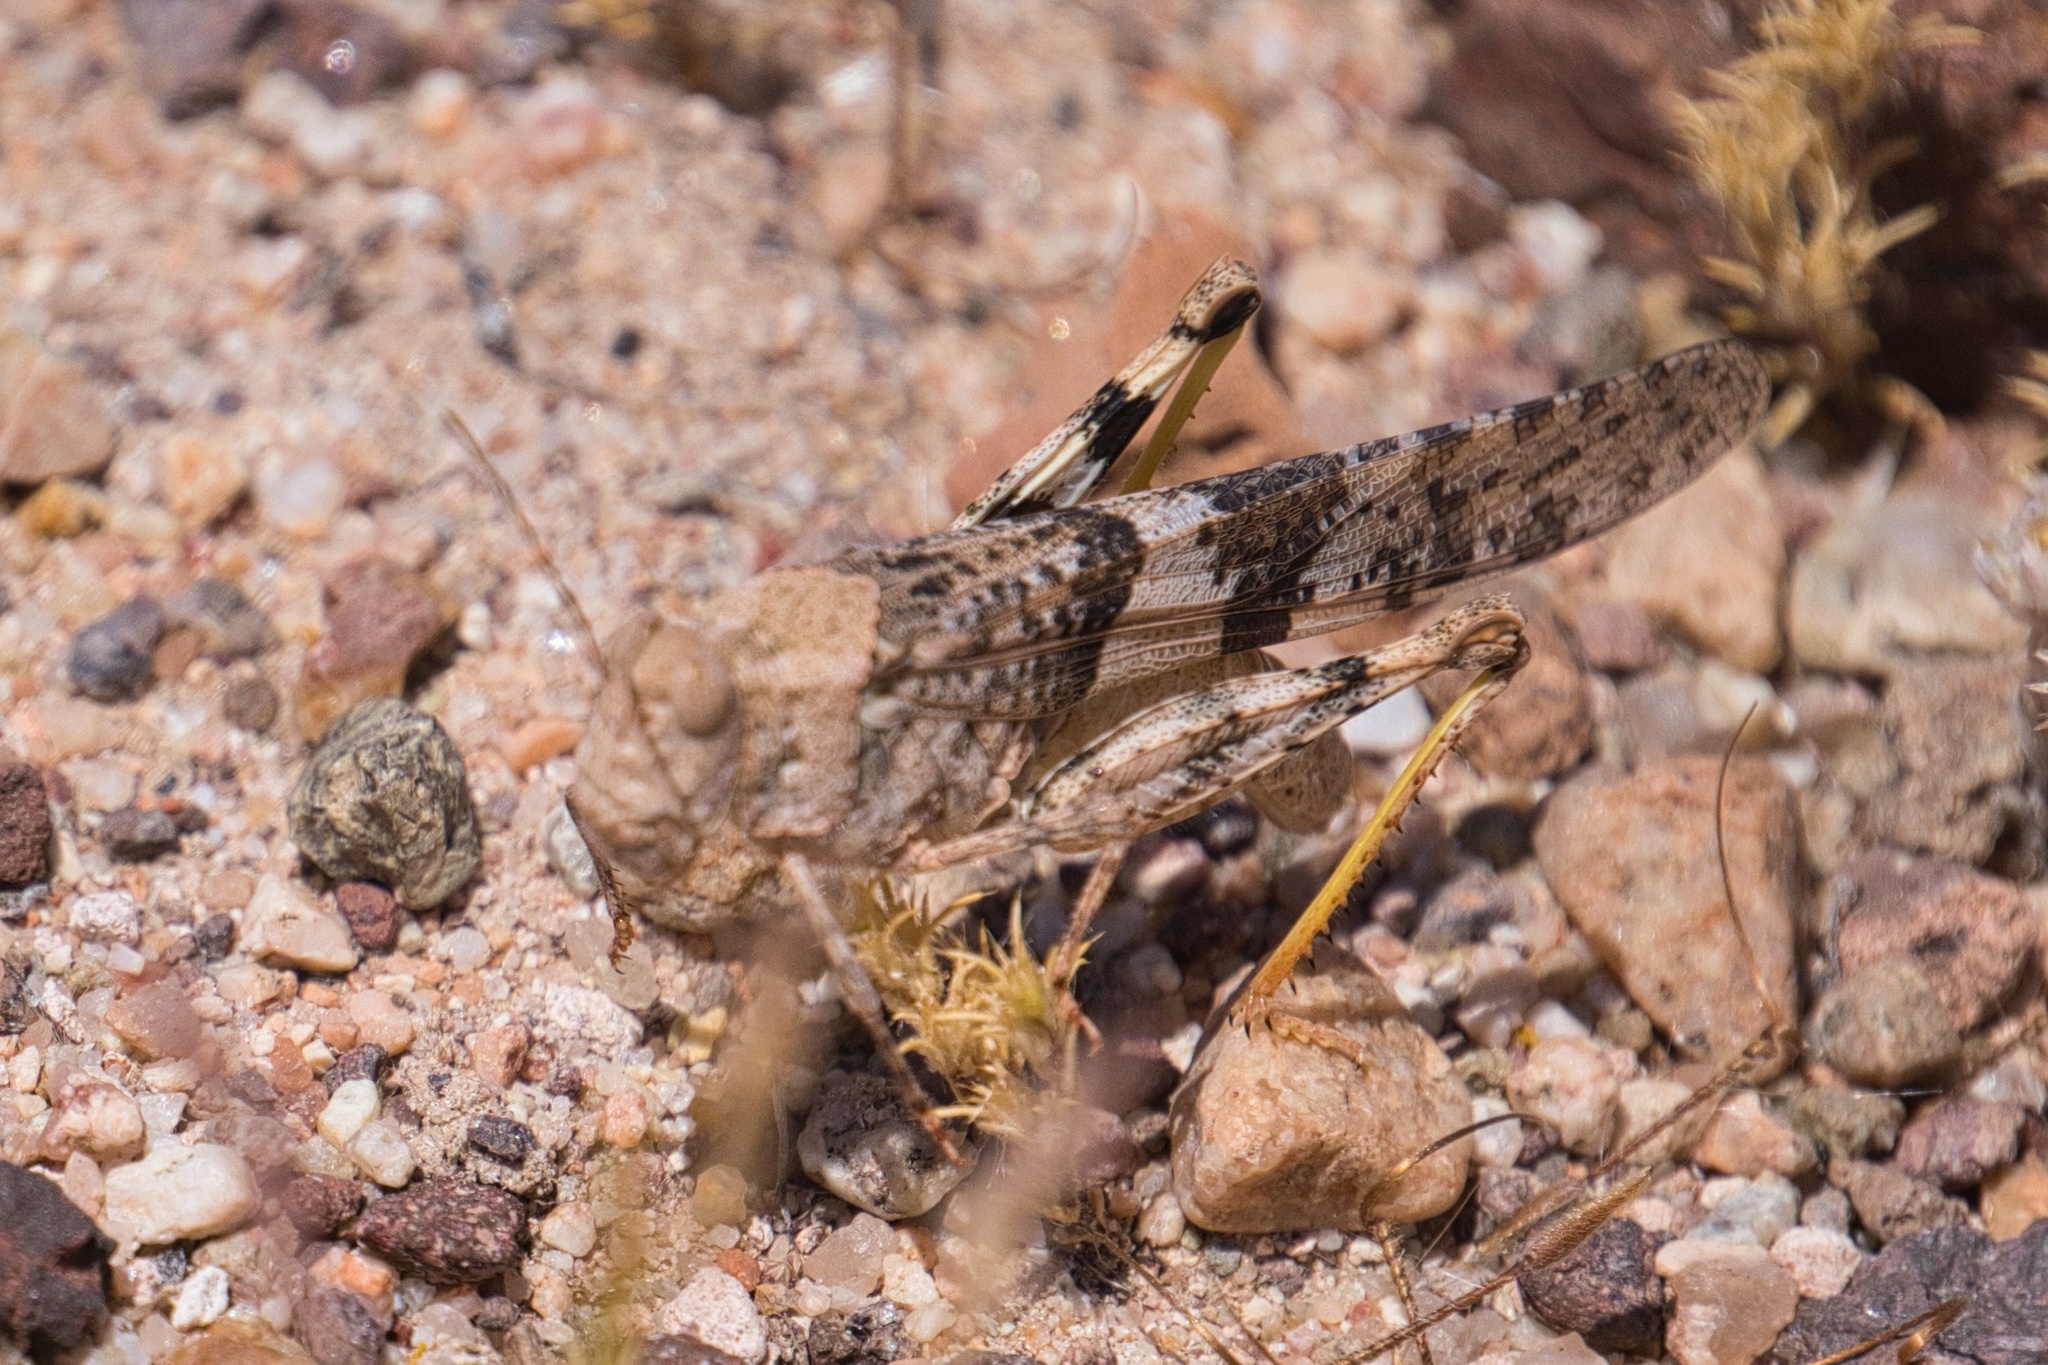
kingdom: Animalia
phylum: Arthropoda
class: Insecta
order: Orthoptera
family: Acrididae
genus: Trimerotropis
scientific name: Trimerotropis pallidipennis
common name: Pallid-winged grasshopper
